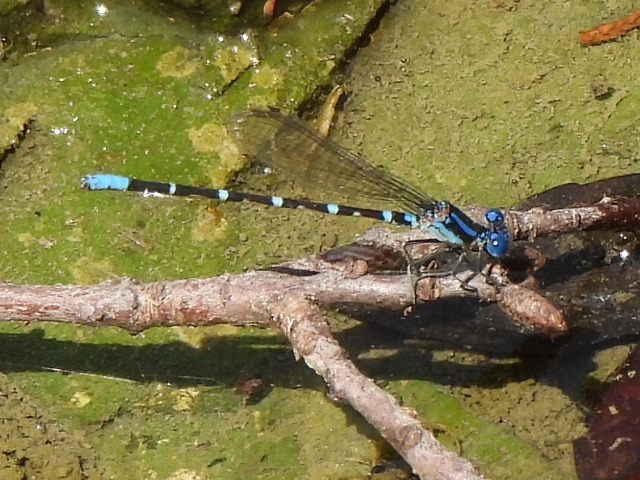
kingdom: Animalia
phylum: Arthropoda
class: Insecta
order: Odonata
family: Coenagrionidae
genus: Argia
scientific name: Argia sedula
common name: Blue-ringed dancer
